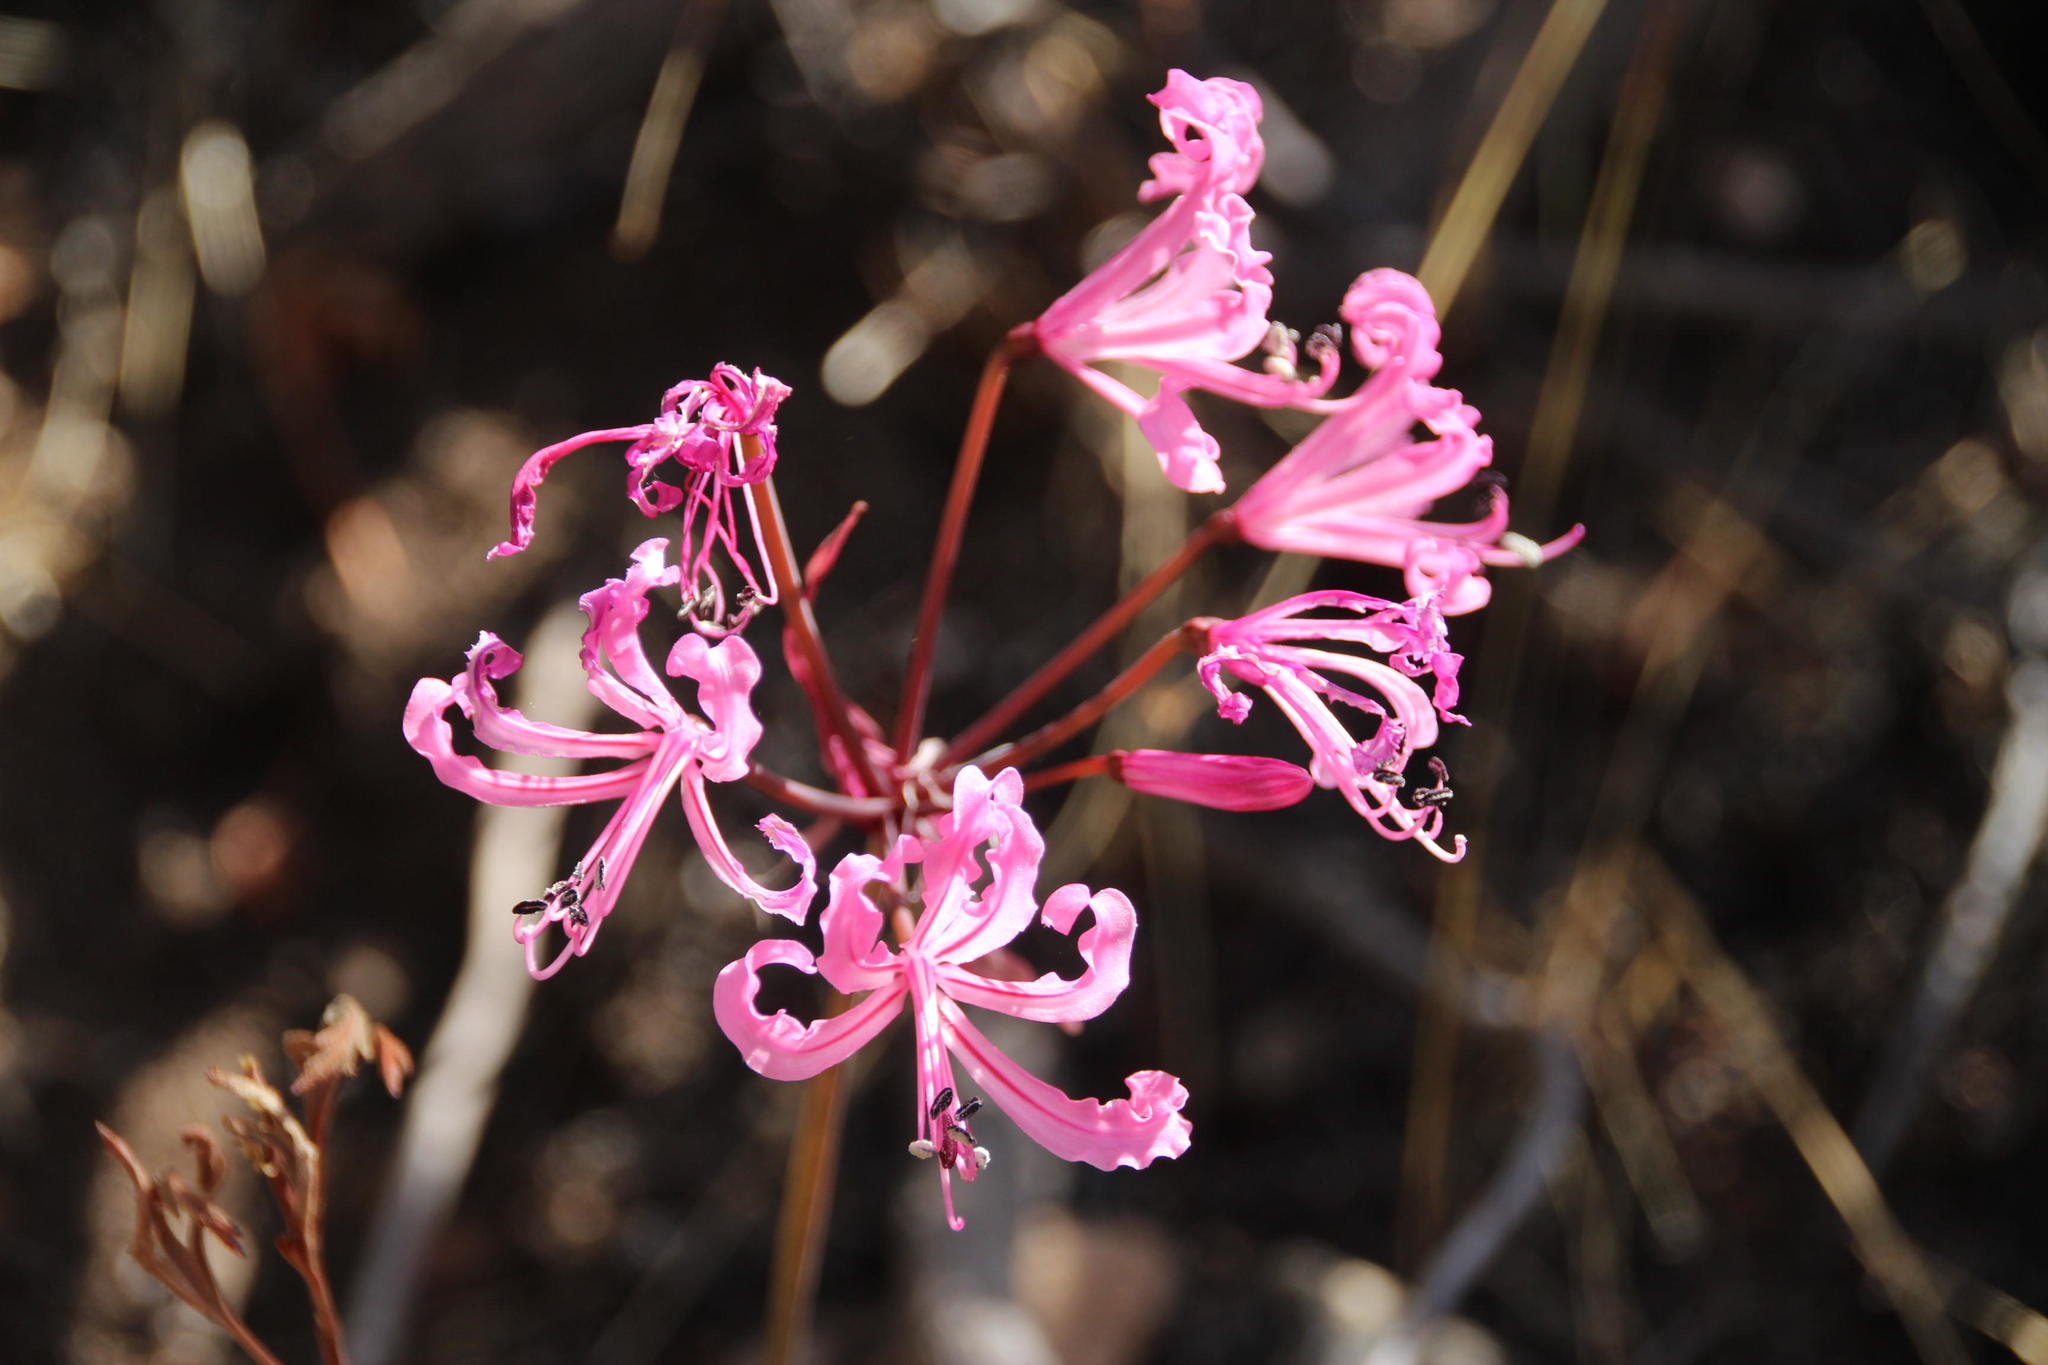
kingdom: Plantae
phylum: Tracheophyta
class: Liliopsida
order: Asparagales
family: Amaryllidaceae
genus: Nerine
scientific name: Nerine humilis
